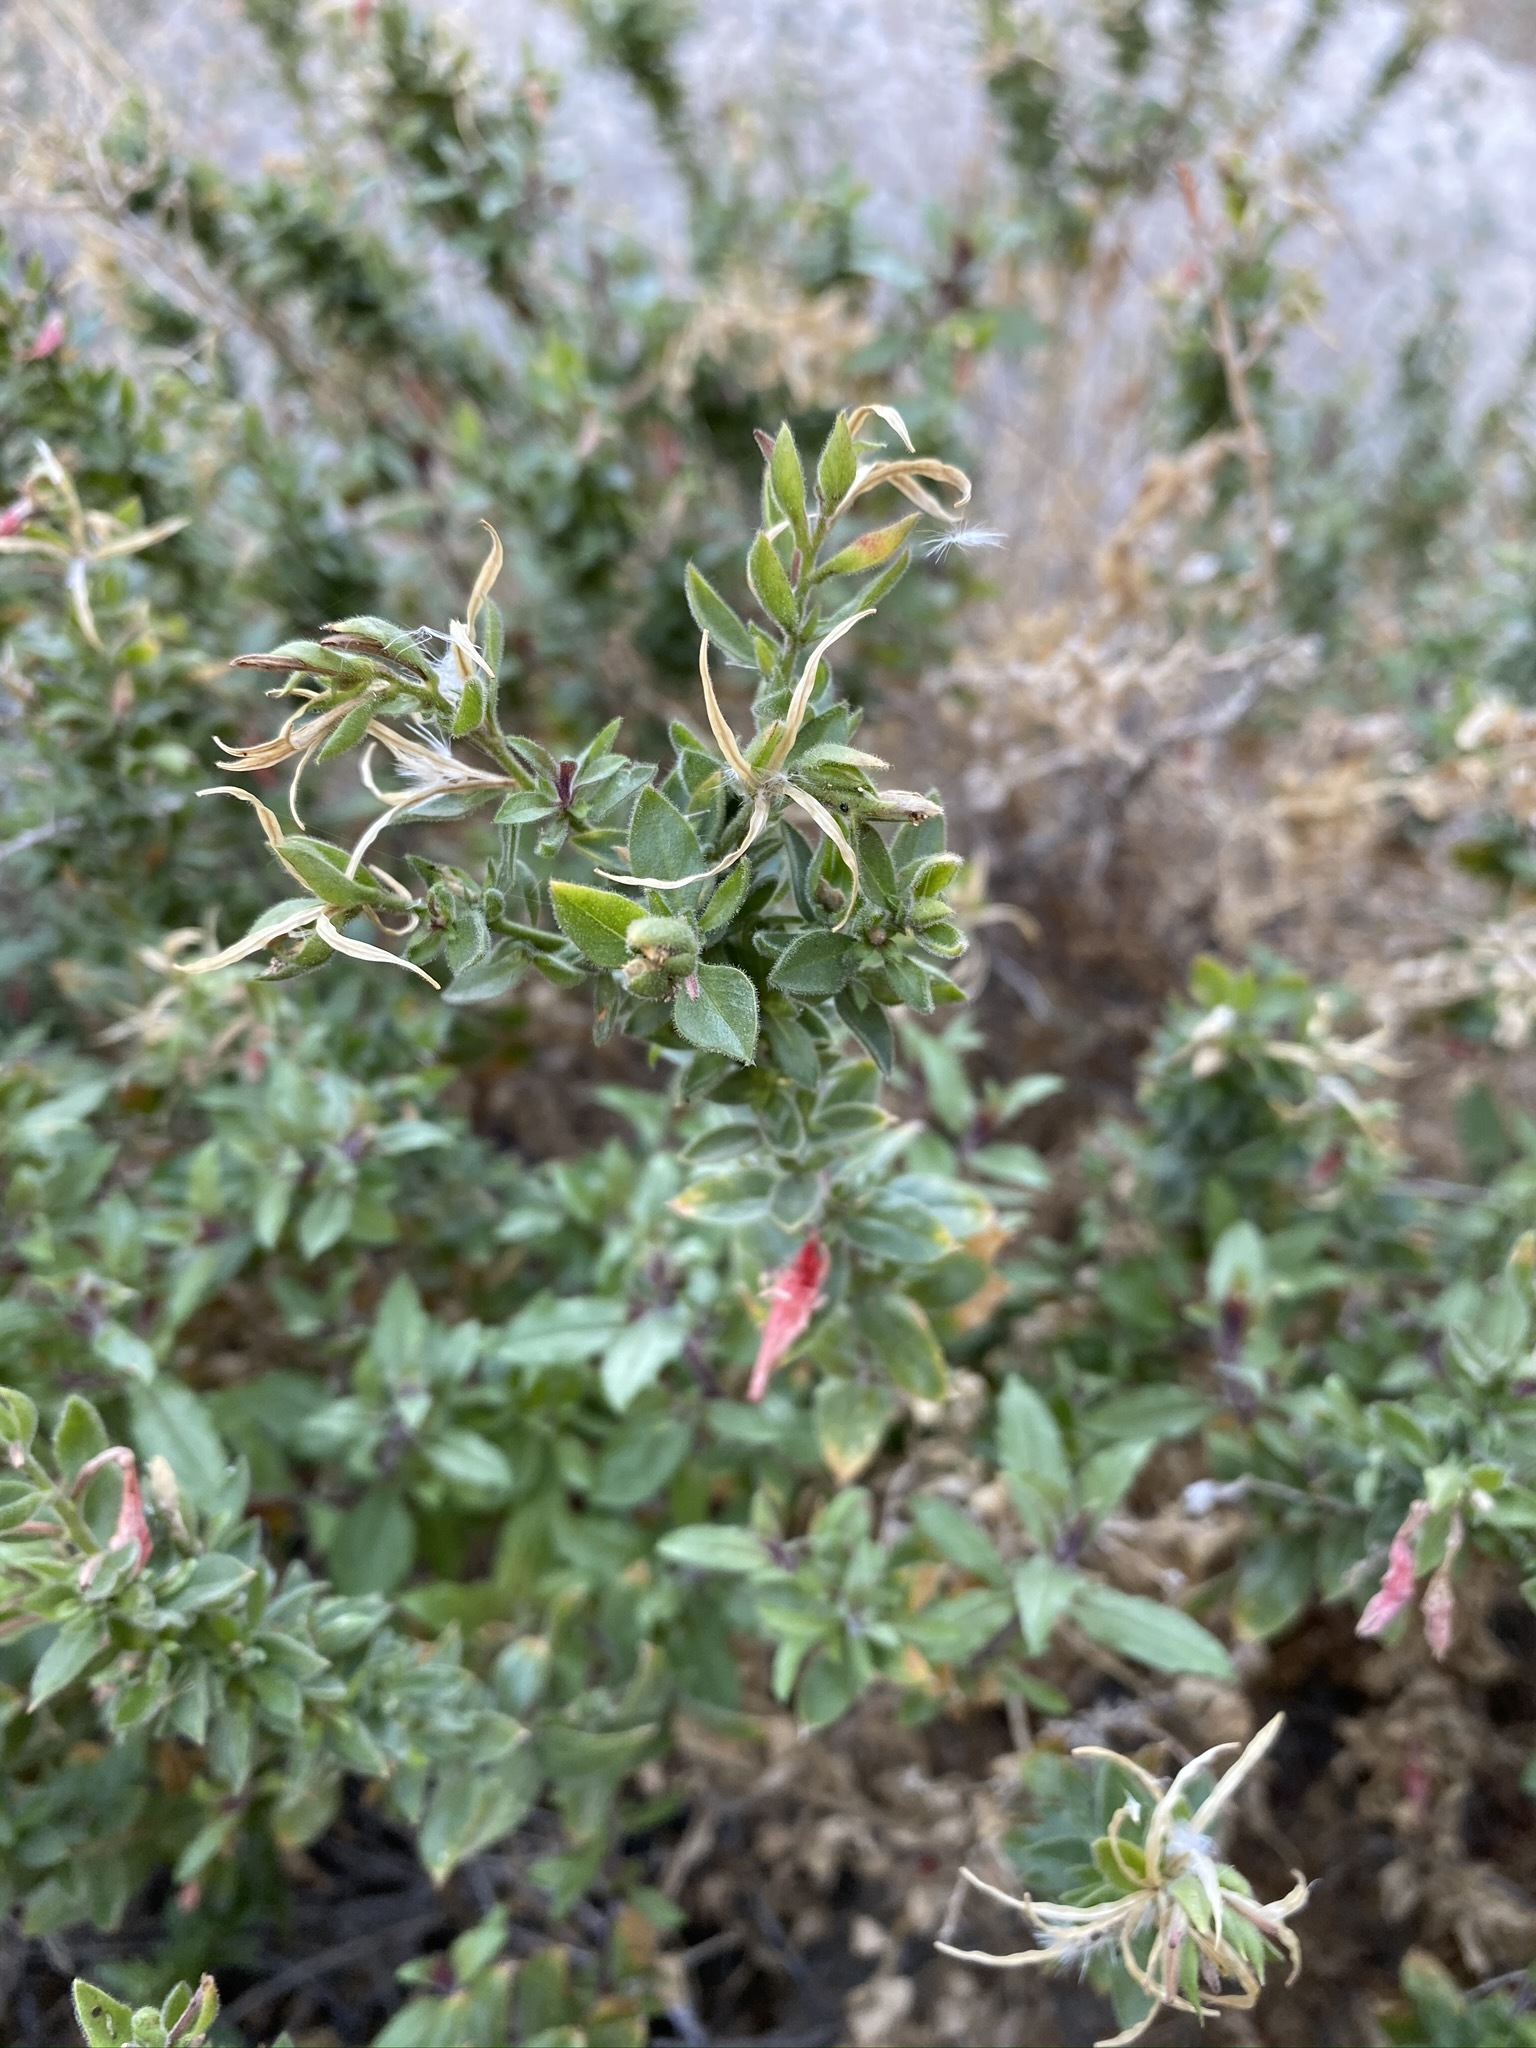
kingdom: Plantae
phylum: Tracheophyta
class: Magnoliopsida
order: Myrtales
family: Onagraceae
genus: Epilobium
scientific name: Epilobium canum
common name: California-fuchsia
